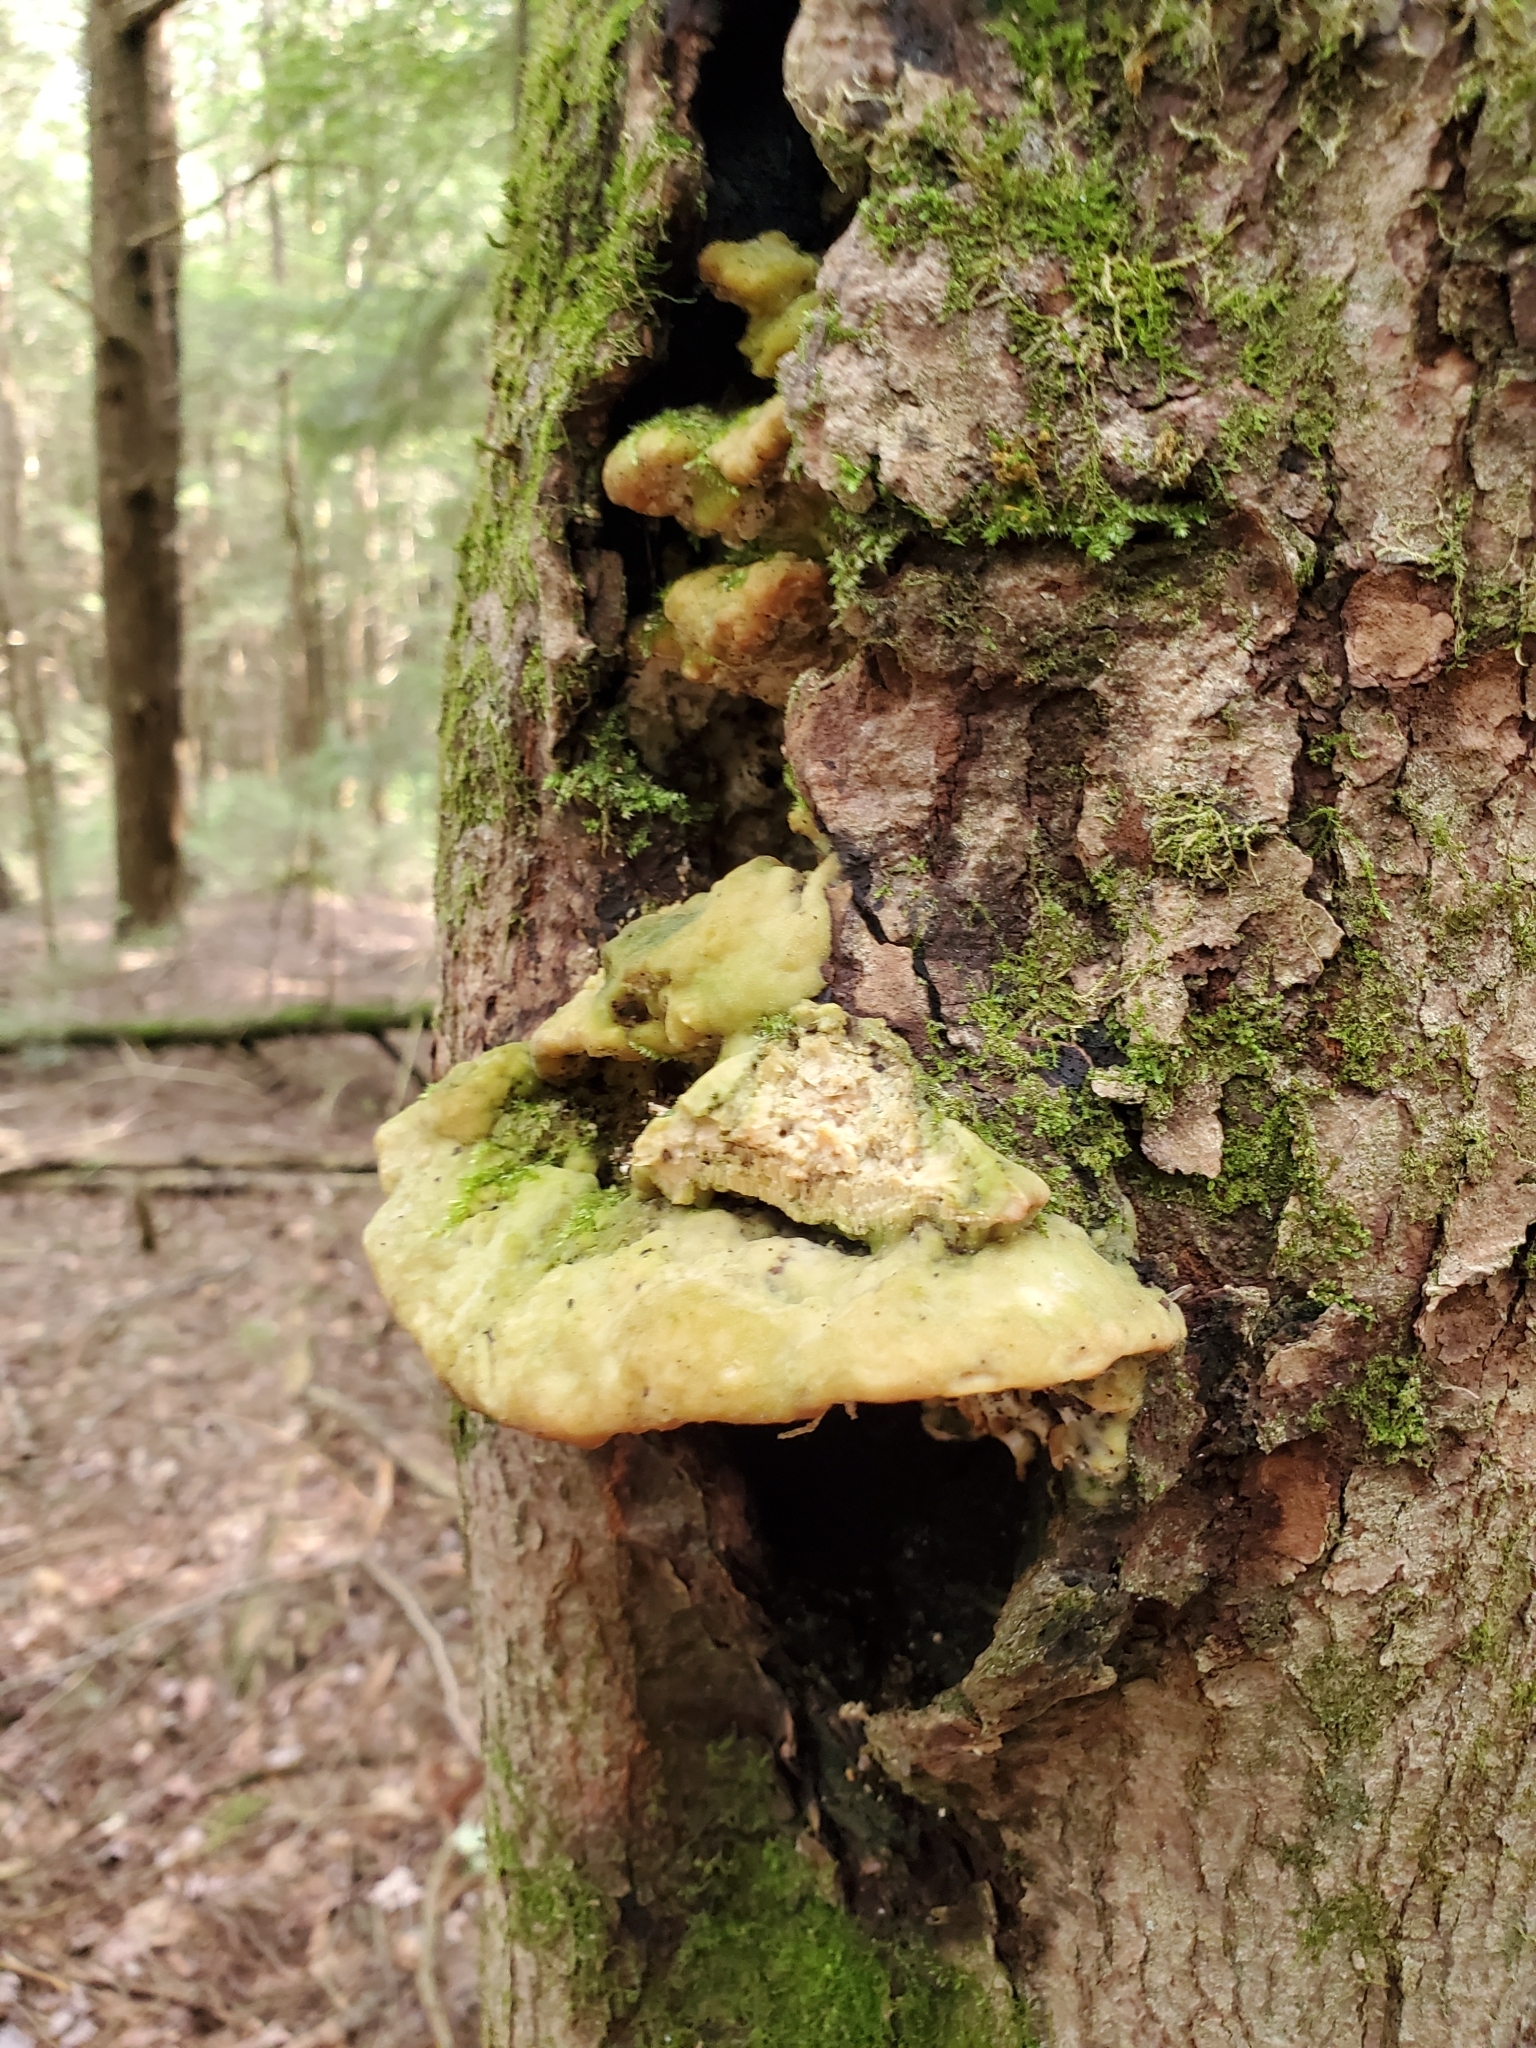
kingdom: Fungi
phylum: Basidiomycota
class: Agaricomycetes
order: Hymenochaetales
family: Oxyporaceae
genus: Oxyporus
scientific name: Oxyporus populinus
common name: Poplar bracket
